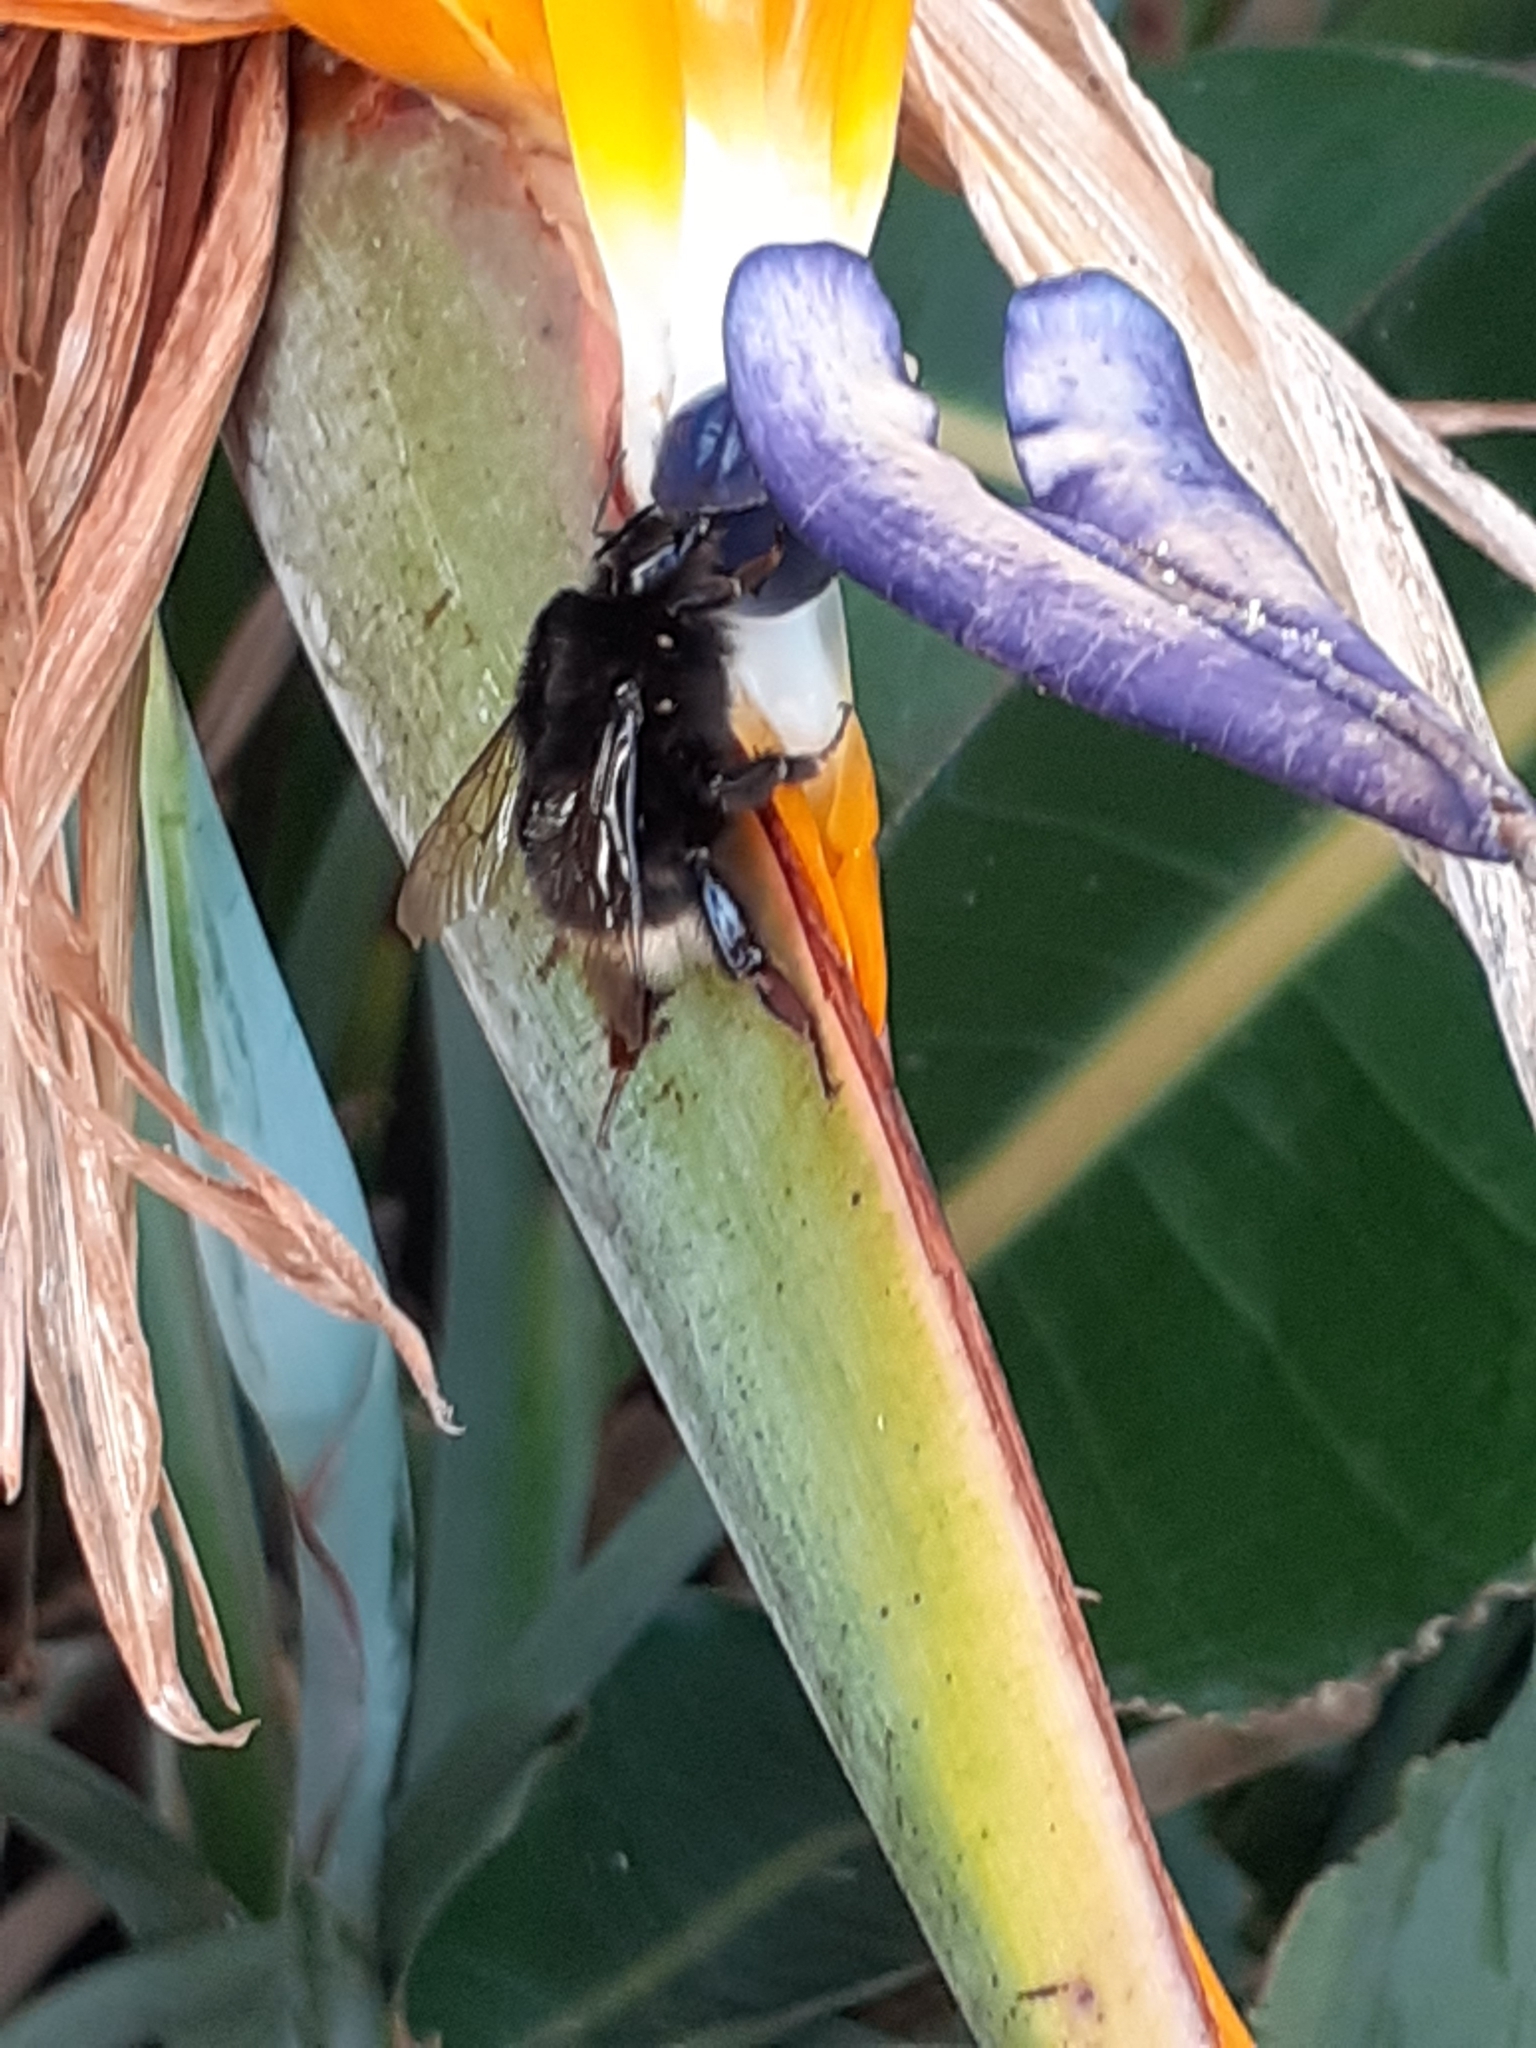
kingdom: Animalia
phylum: Arthropoda
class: Insecta
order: Hymenoptera
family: Apidae
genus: Bombus
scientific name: Bombus terrestris
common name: Buff-tailed bumblebee
